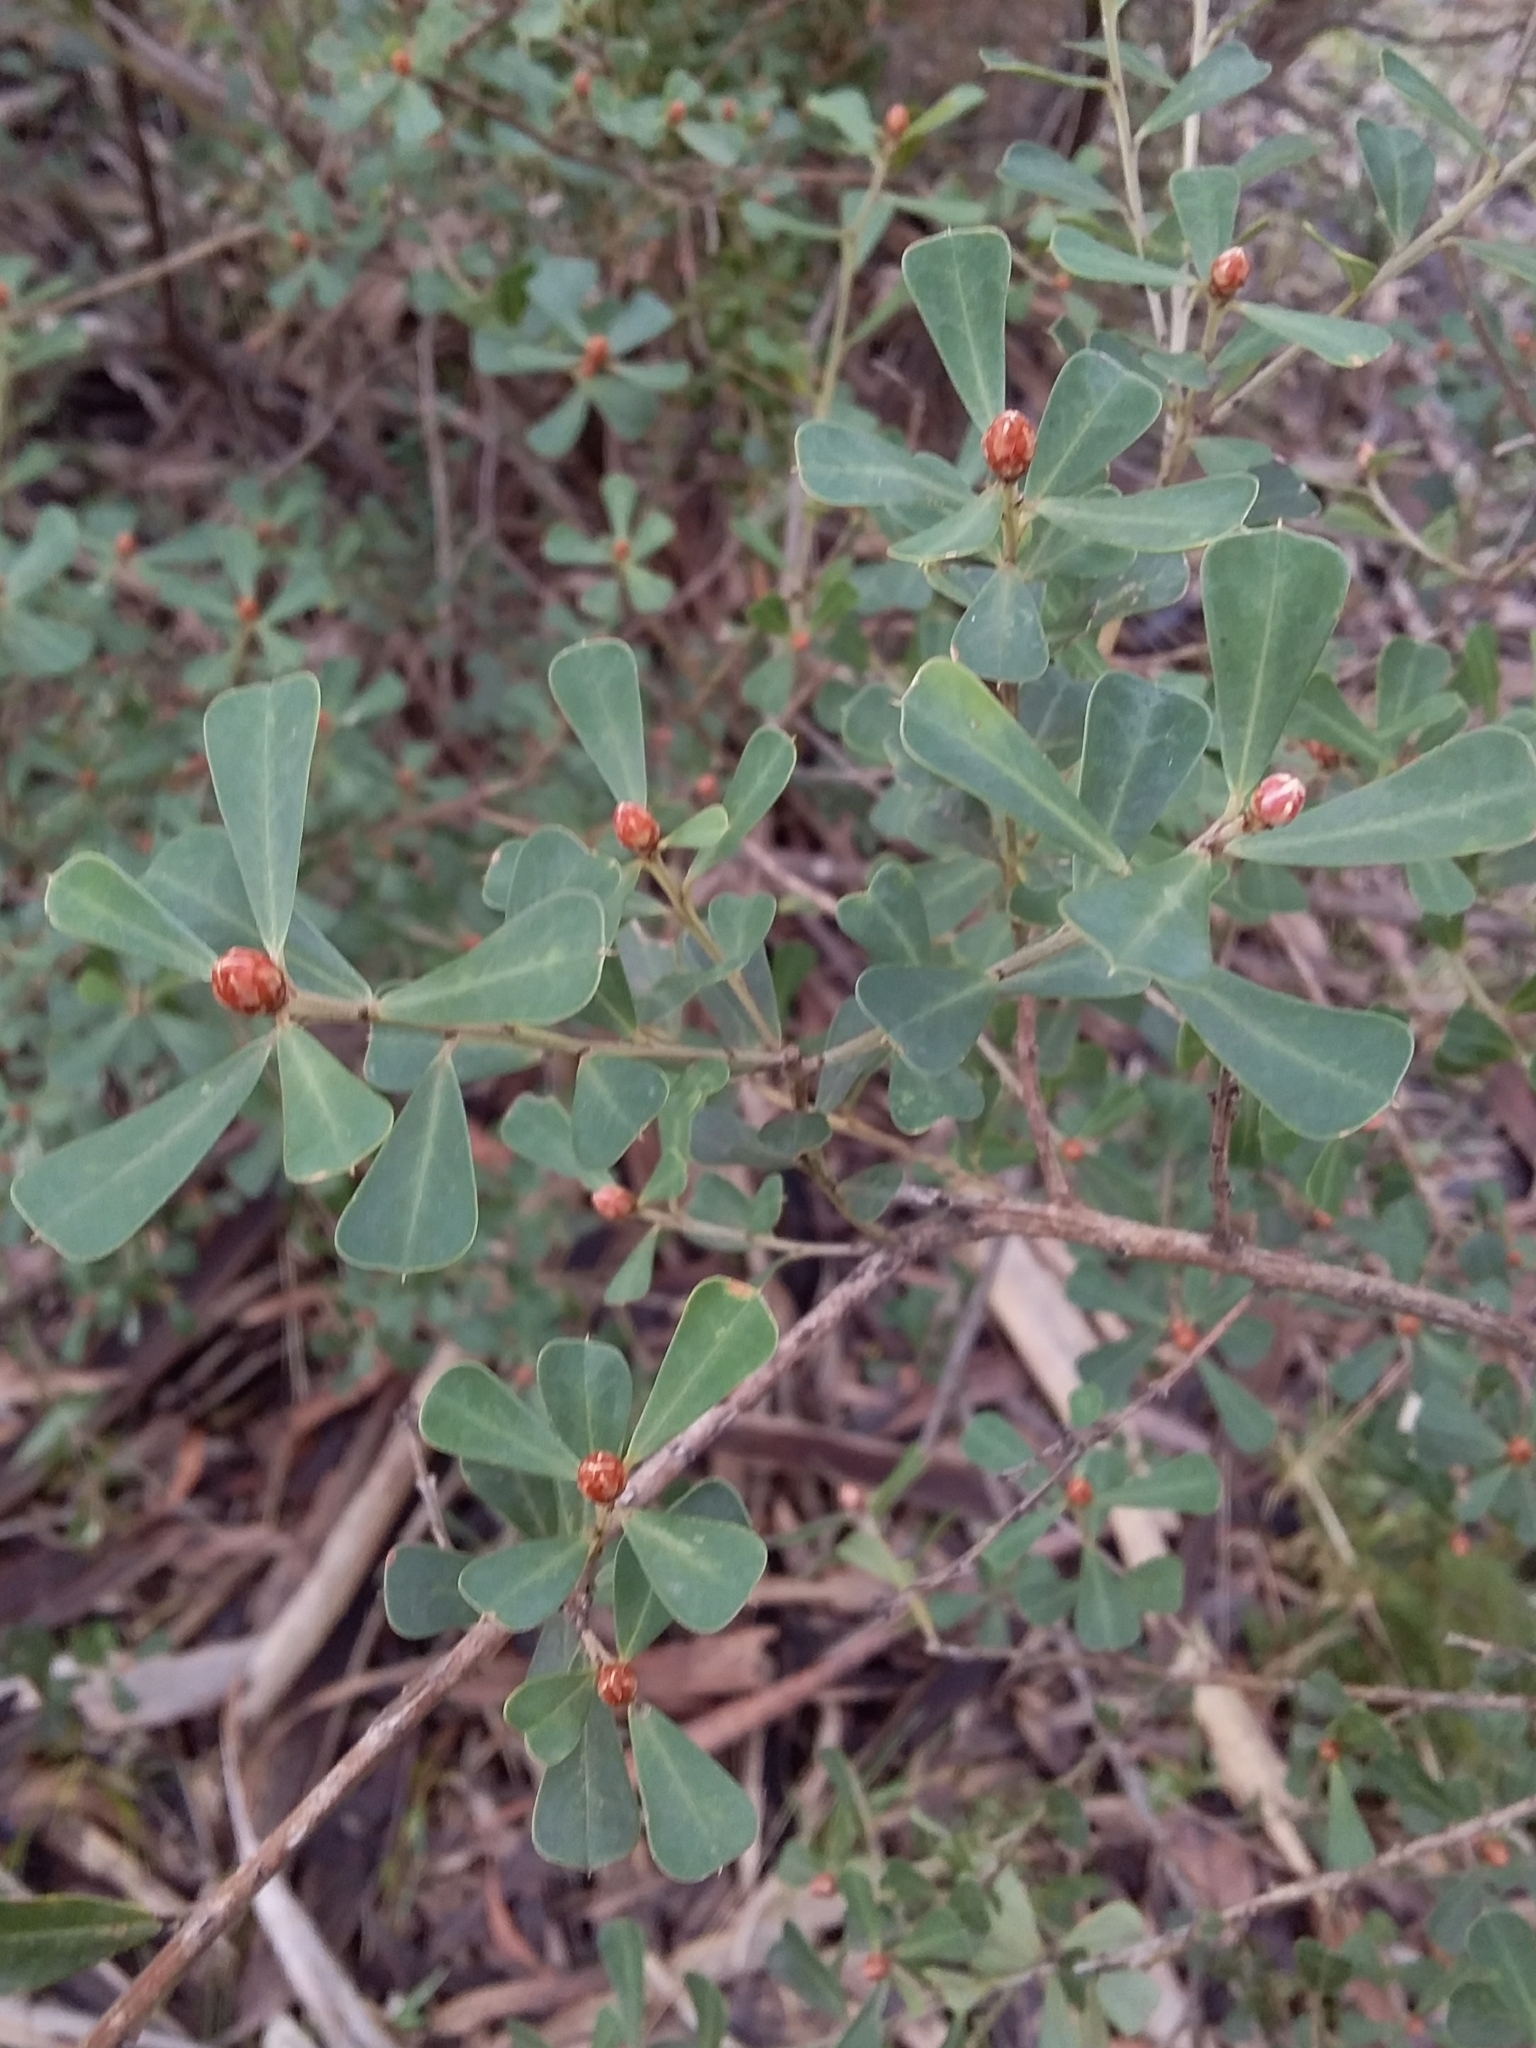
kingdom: Plantae
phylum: Tracheophyta
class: Magnoliopsida
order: Fabales
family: Fabaceae
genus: Pultenaea
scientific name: Pultenaea daphnoides
